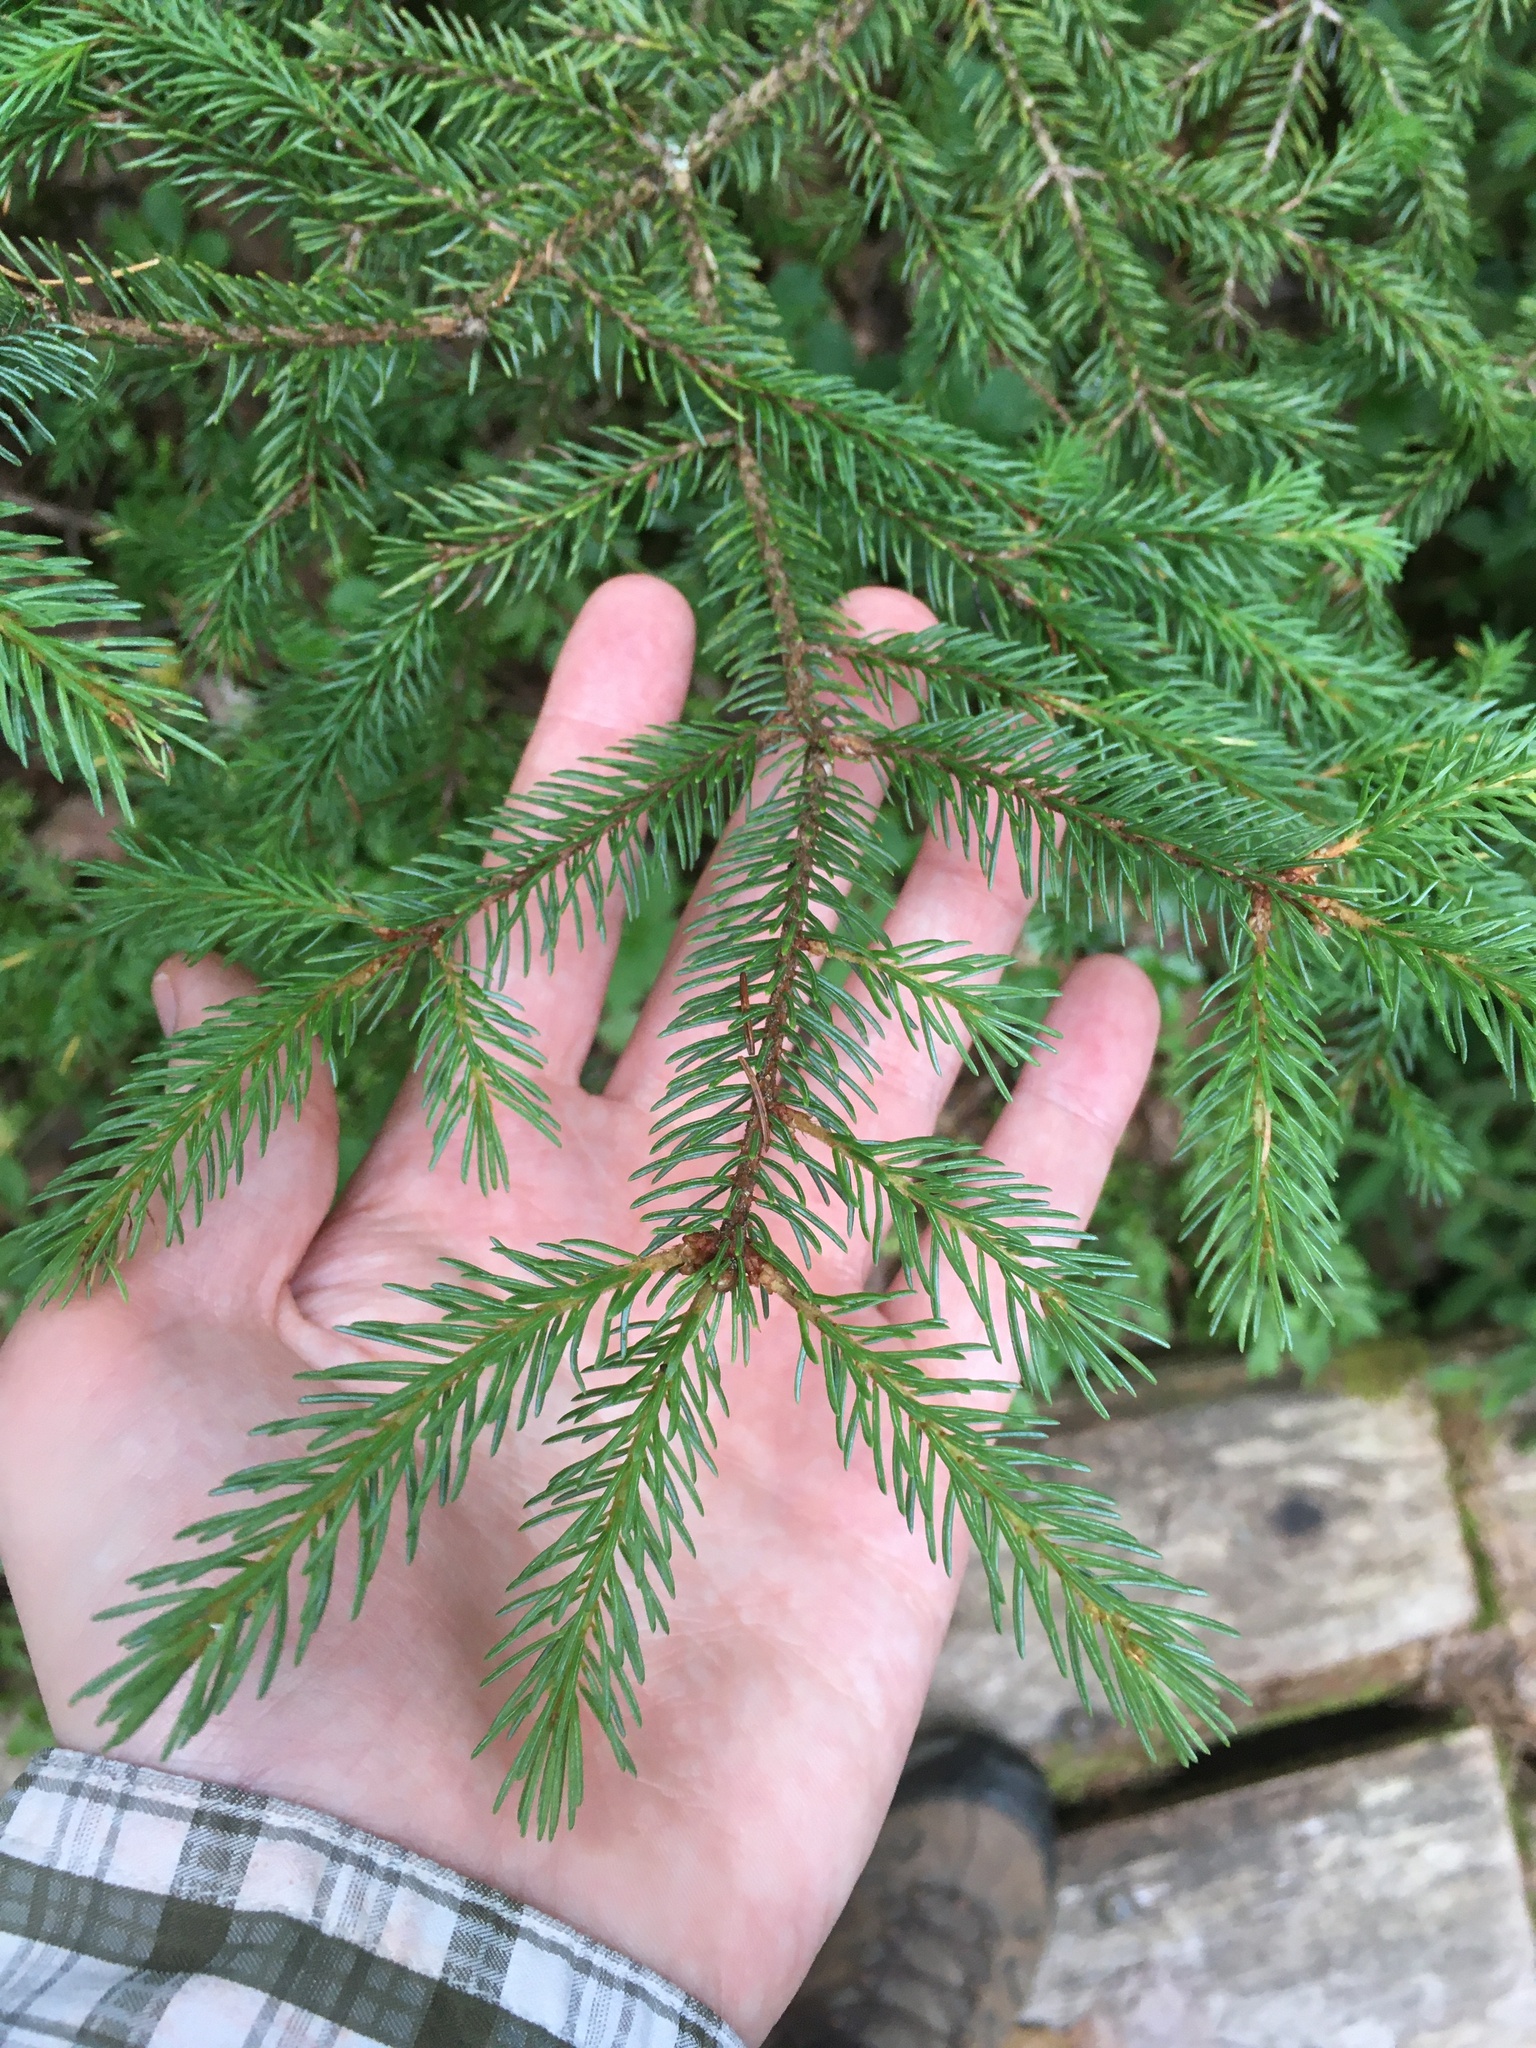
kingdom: Plantae
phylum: Tracheophyta
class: Pinopsida
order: Pinales
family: Pinaceae
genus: Picea
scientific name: Picea rubens
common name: Red spruce
